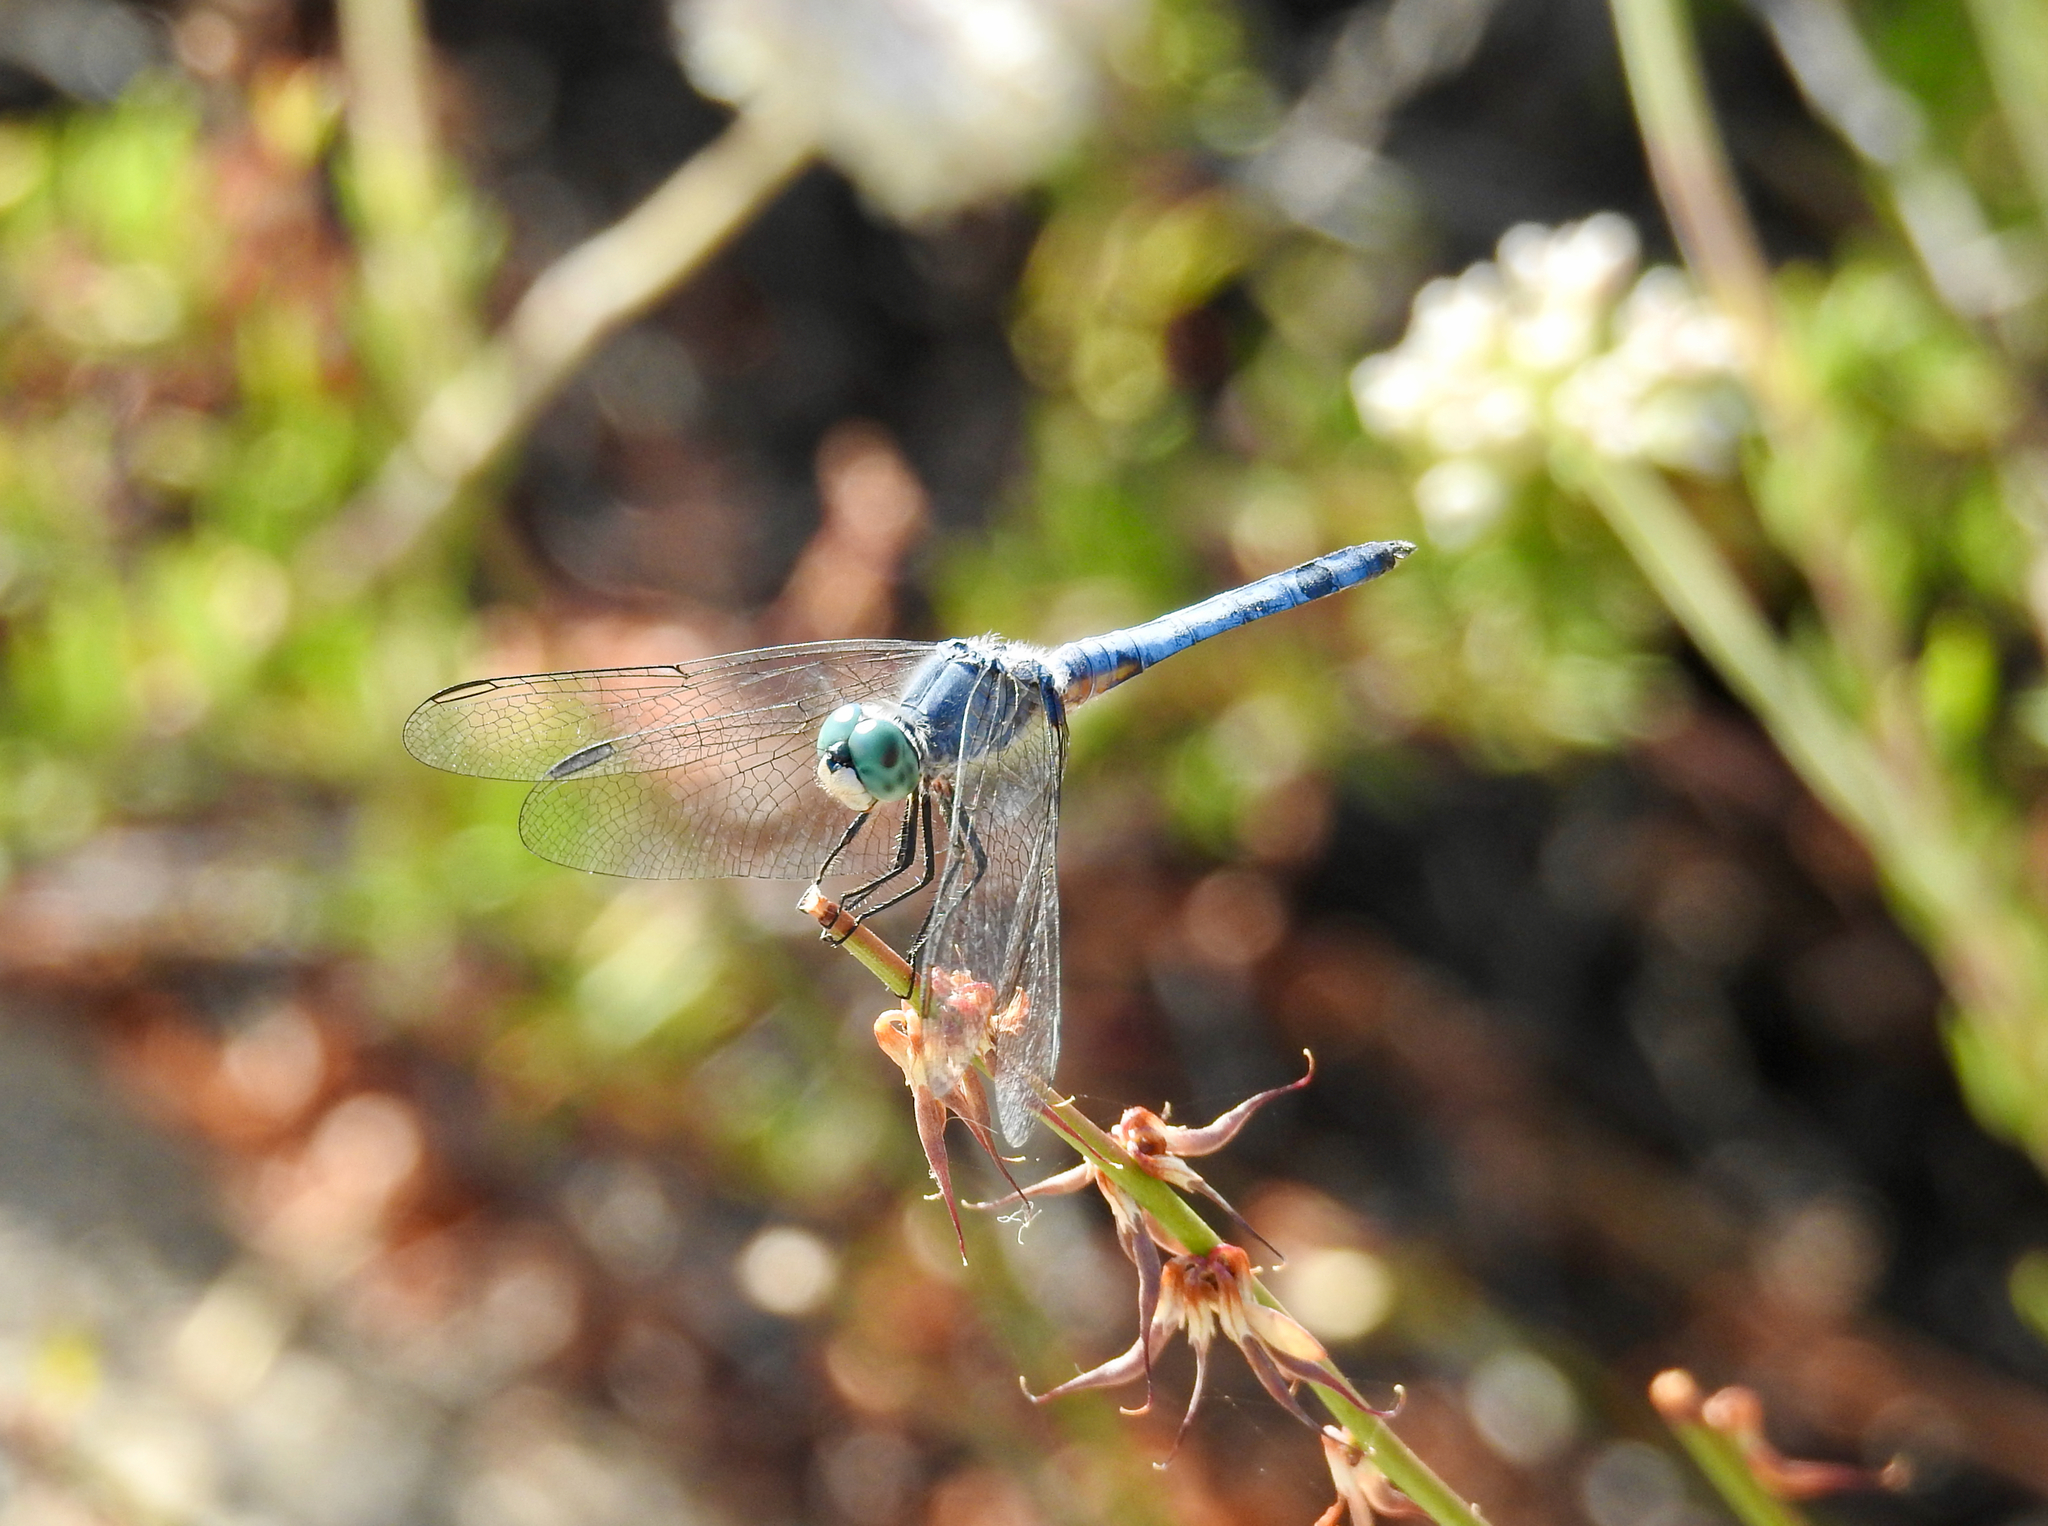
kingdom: Animalia
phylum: Arthropoda
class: Insecta
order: Odonata
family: Libellulidae
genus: Pachydiplax
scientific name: Pachydiplax longipennis
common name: Blue dasher
